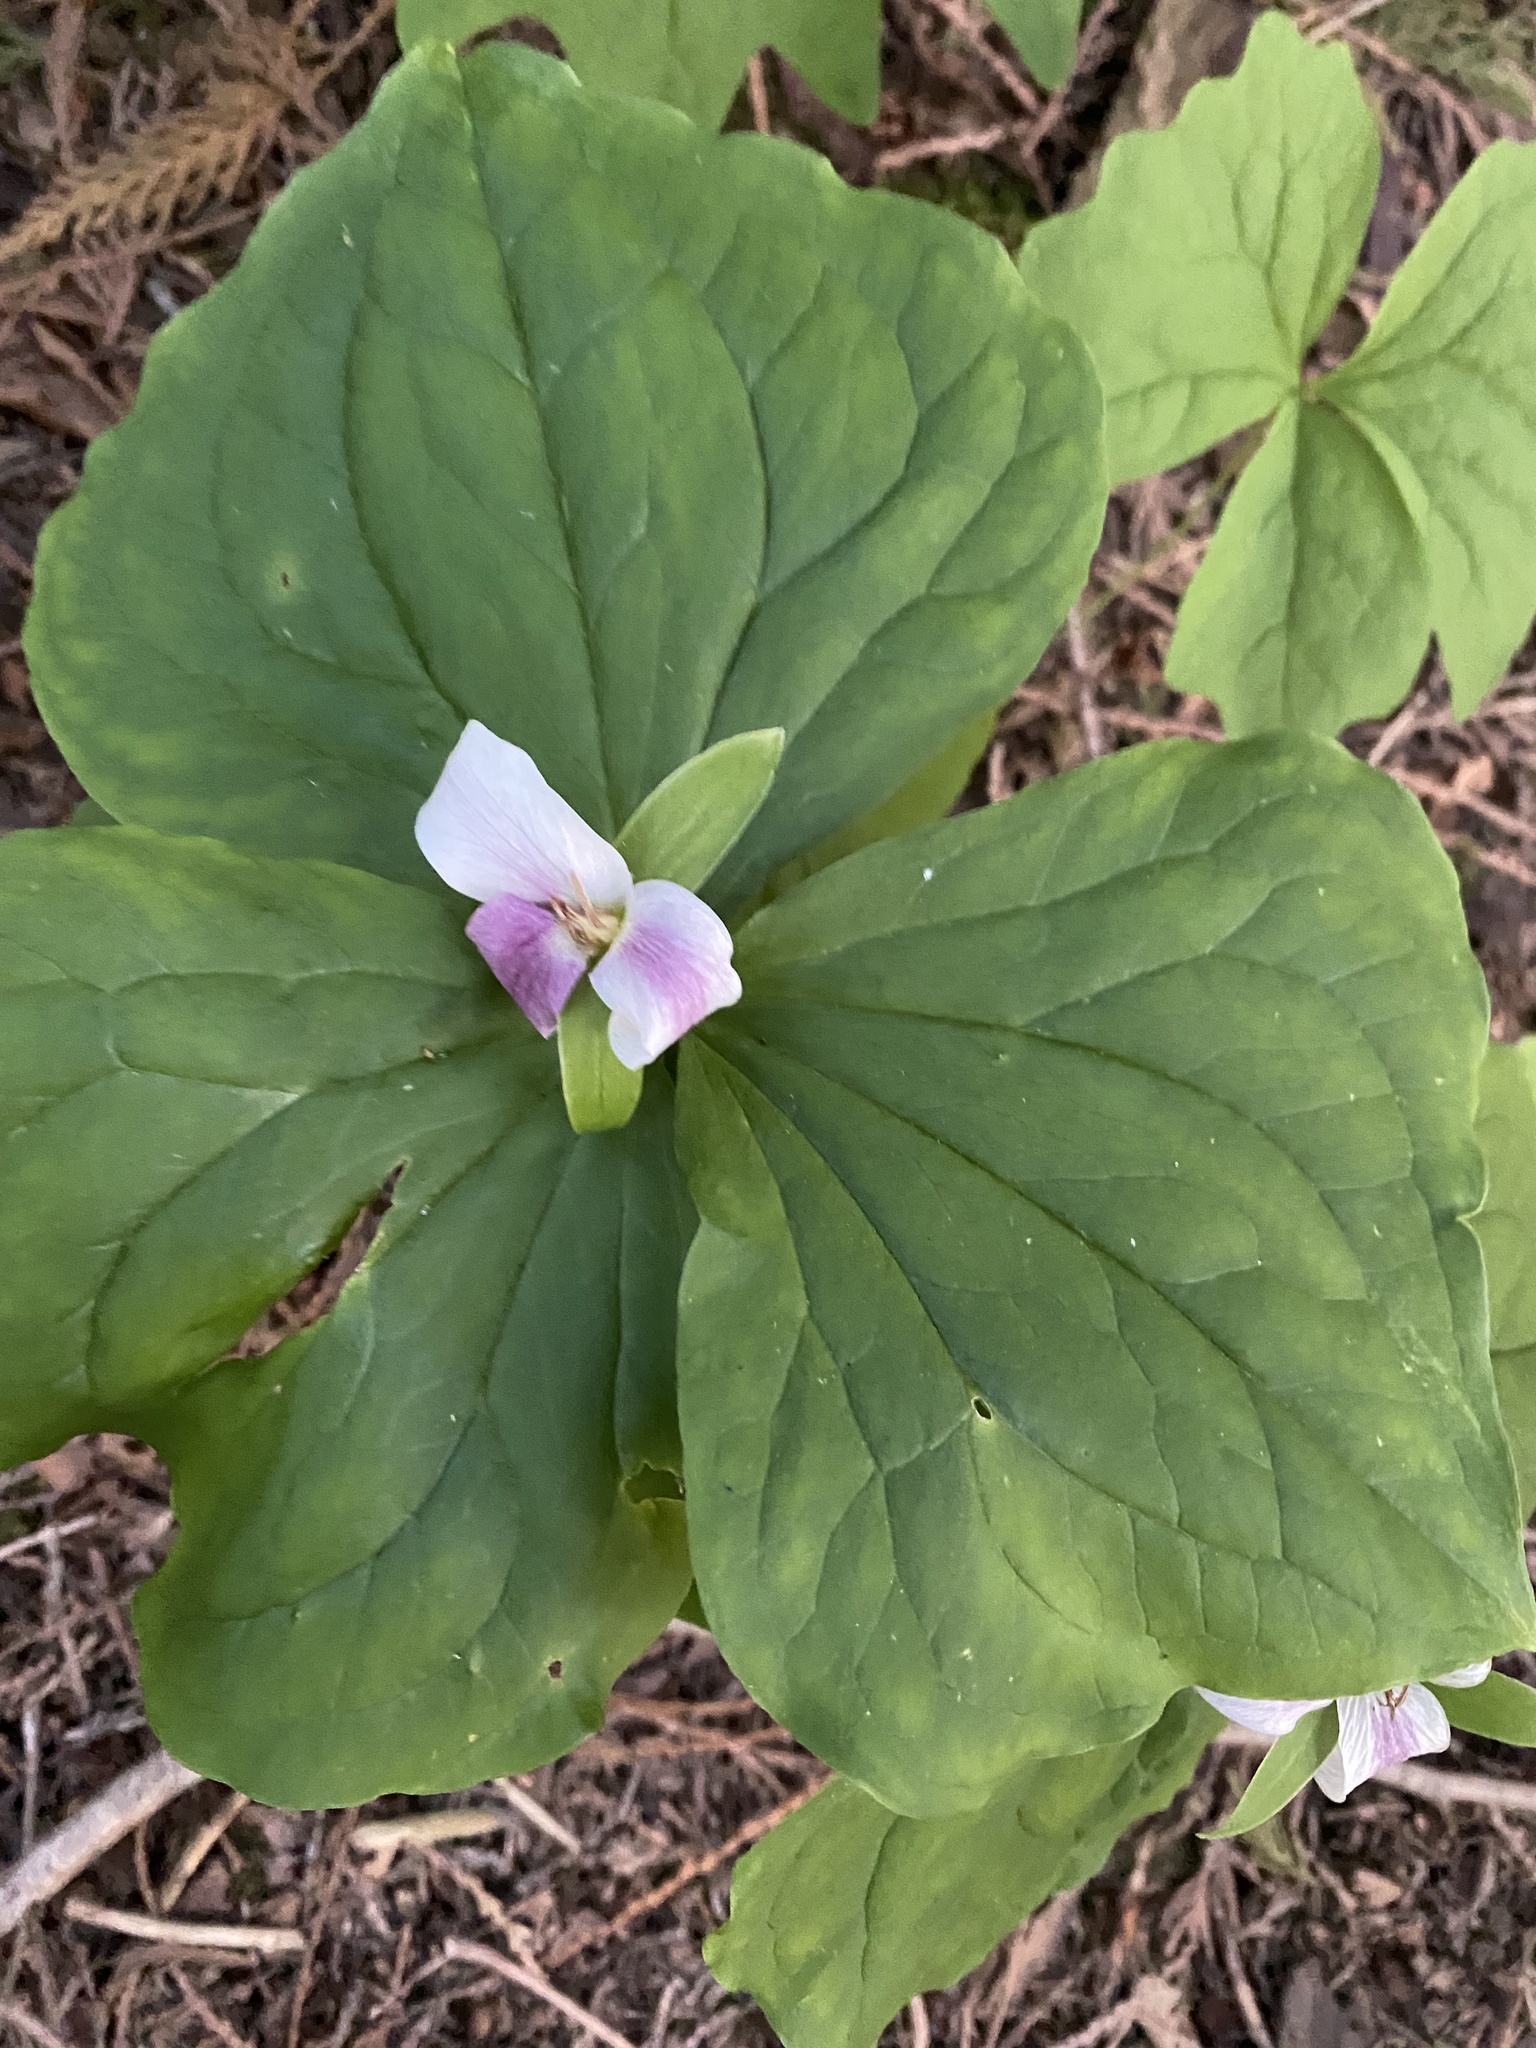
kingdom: Plantae
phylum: Tracheophyta
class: Liliopsida
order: Liliales
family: Melanthiaceae
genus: Trillium
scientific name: Trillium ovatum
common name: Pacific trillium
